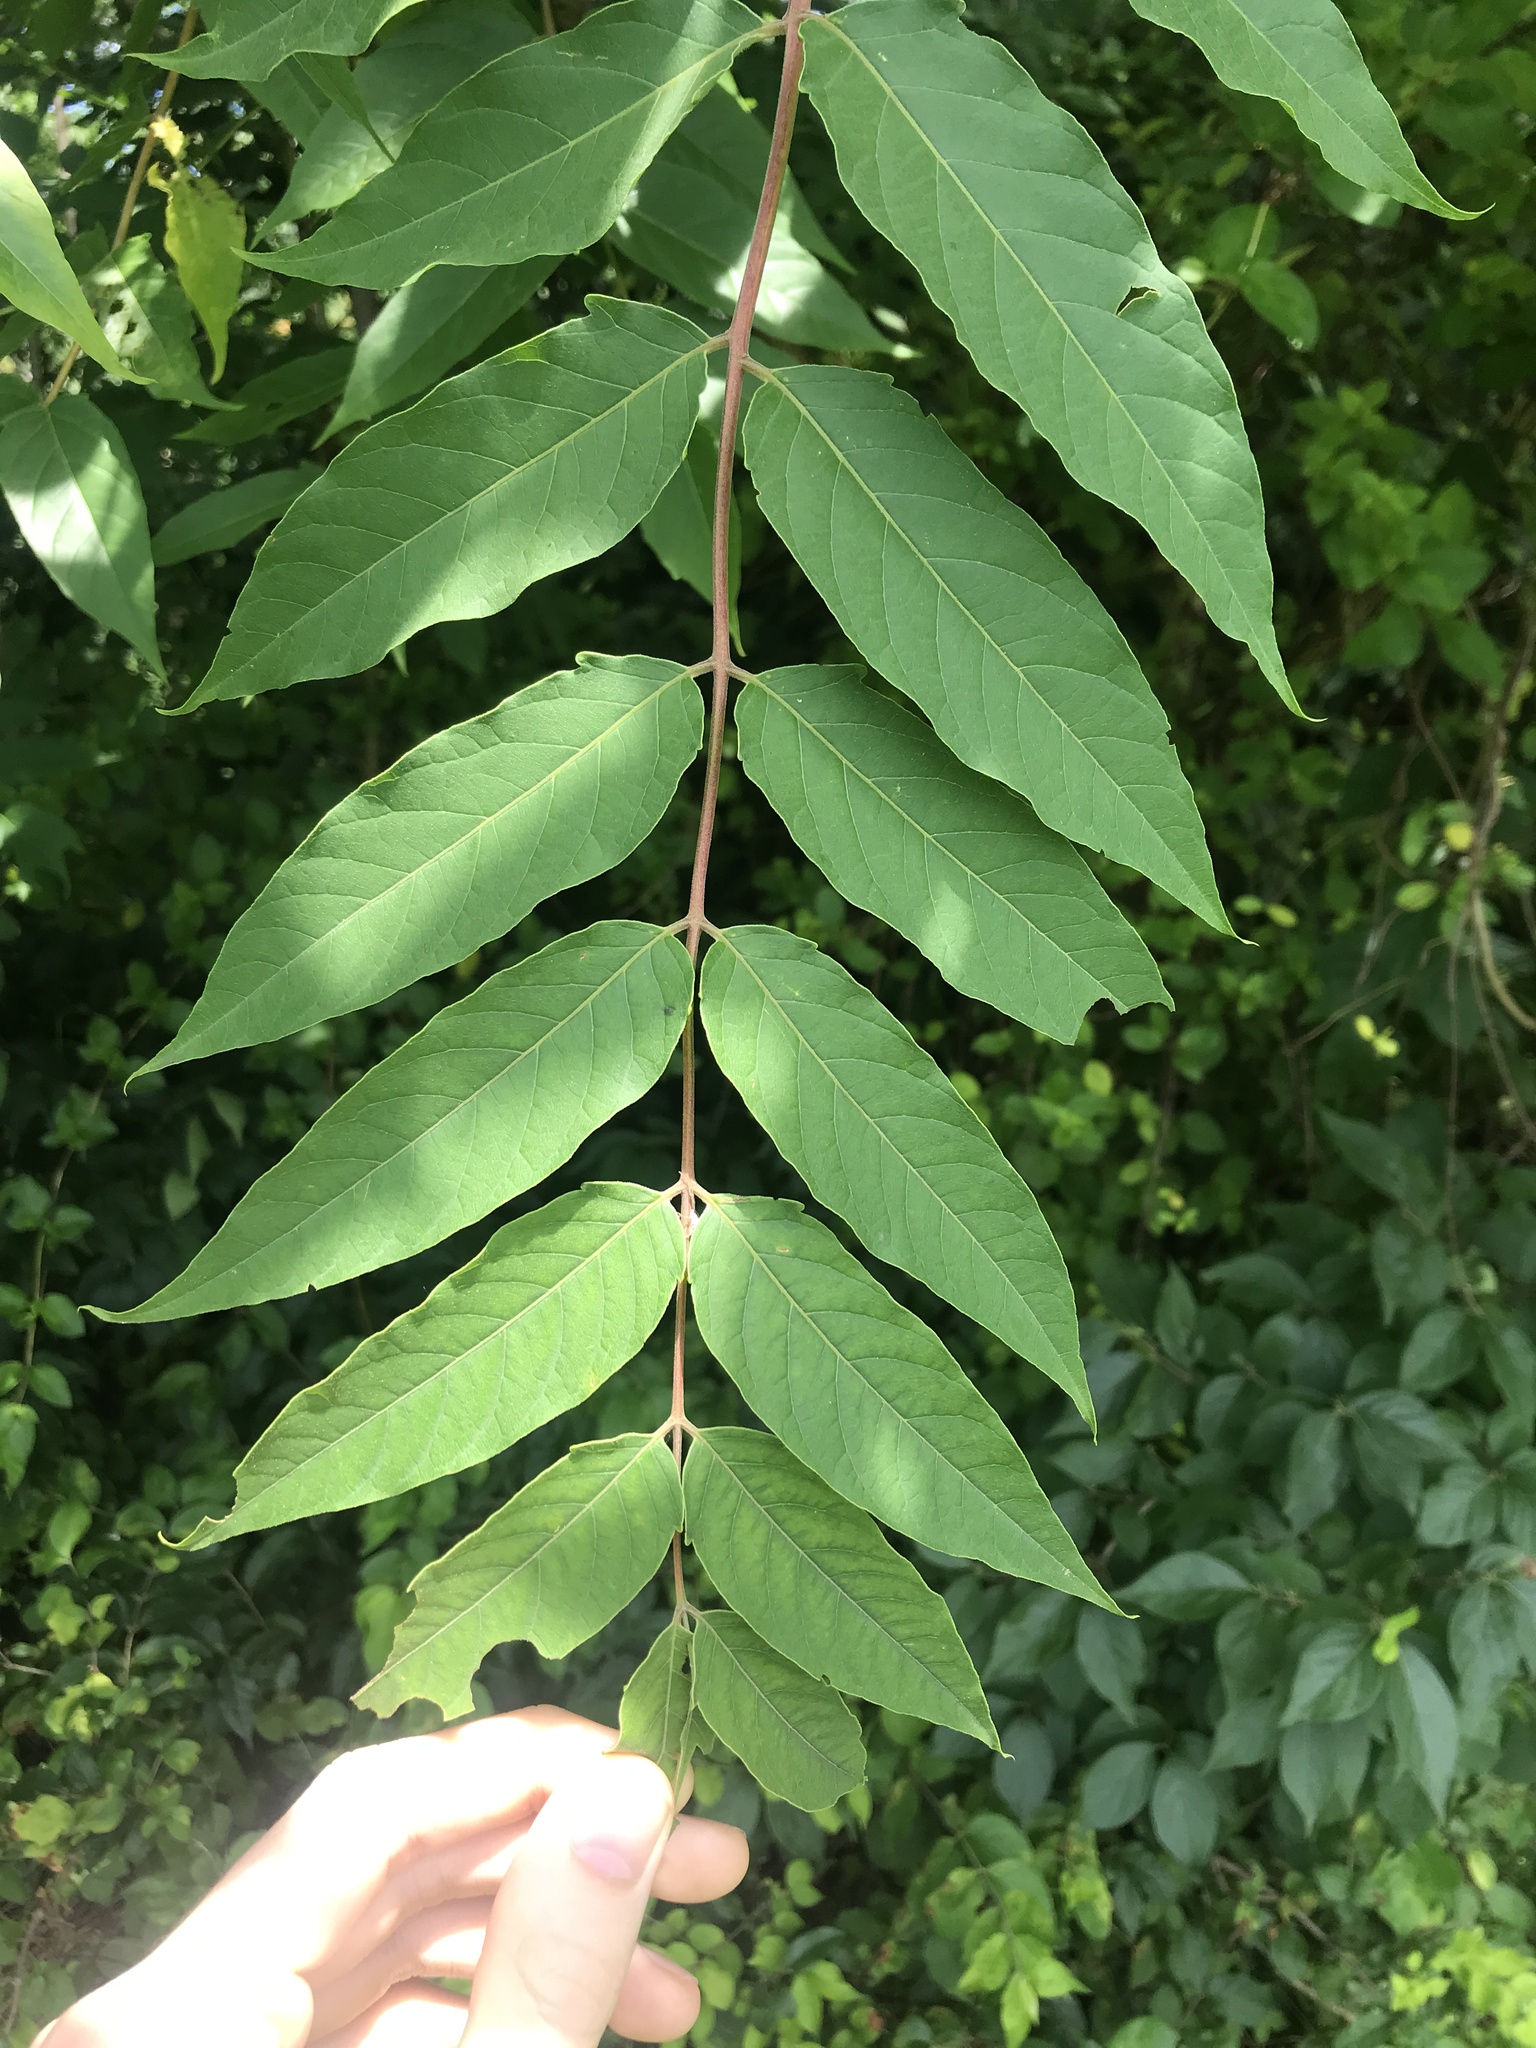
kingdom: Plantae
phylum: Tracheophyta
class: Magnoliopsida
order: Sapindales
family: Simaroubaceae
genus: Ailanthus
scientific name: Ailanthus altissima
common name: Tree-of-heaven
